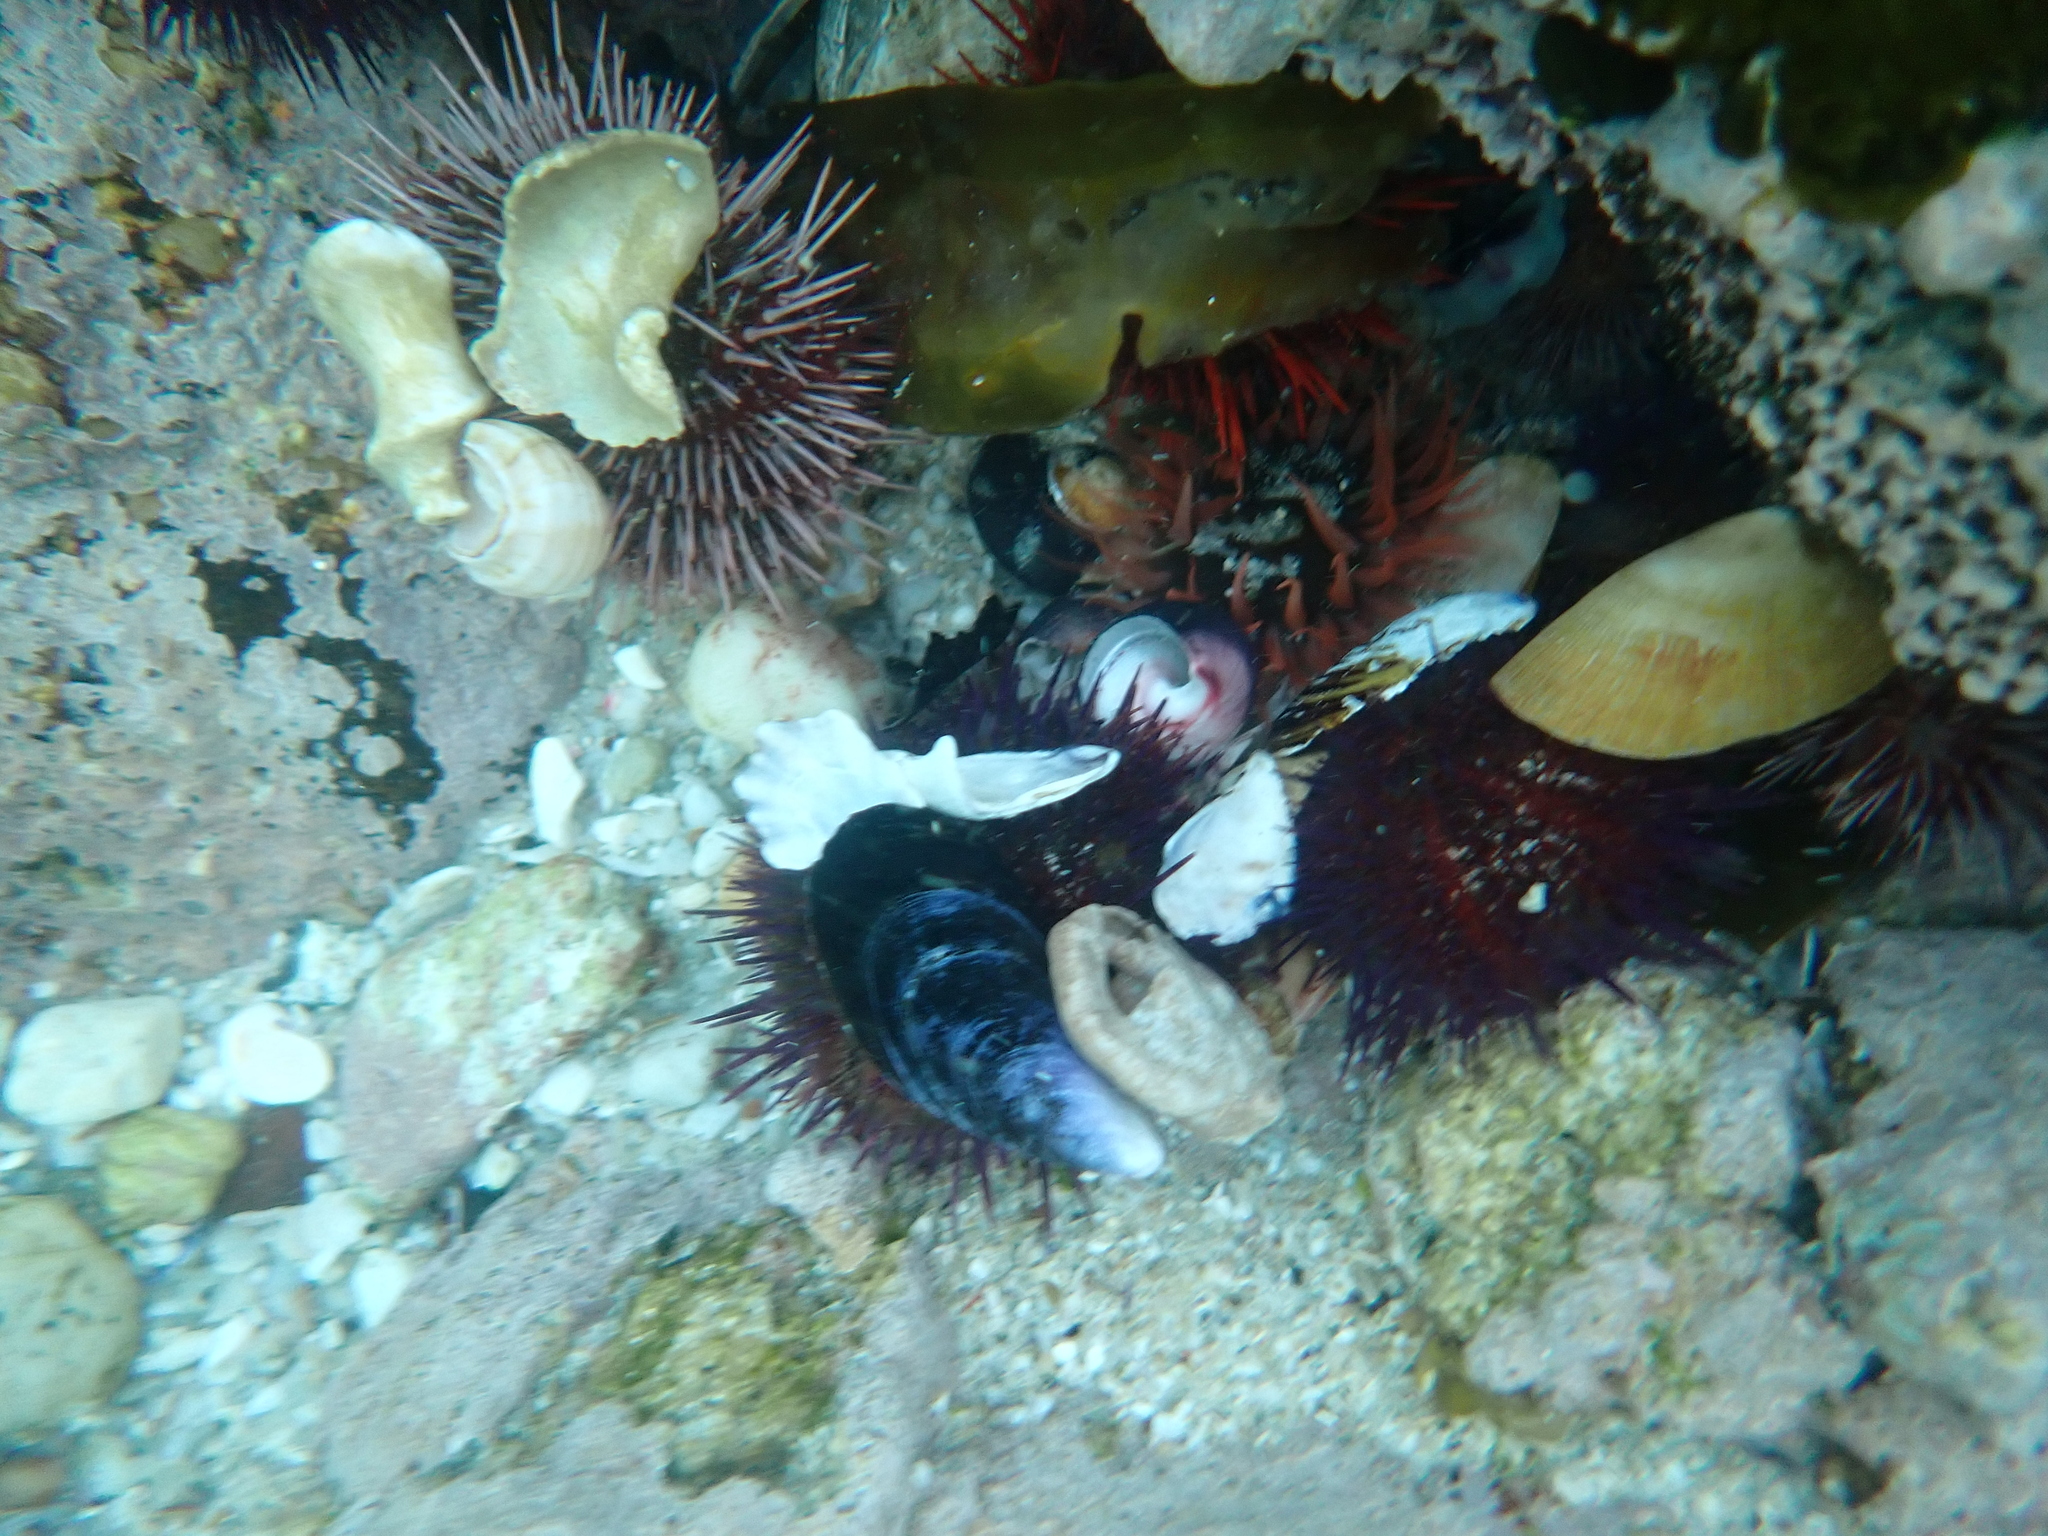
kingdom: Animalia
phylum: Echinodermata
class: Echinoidea
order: Camarodonta
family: Parechinidae
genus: Parechinus
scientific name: Parechinus angulosus
